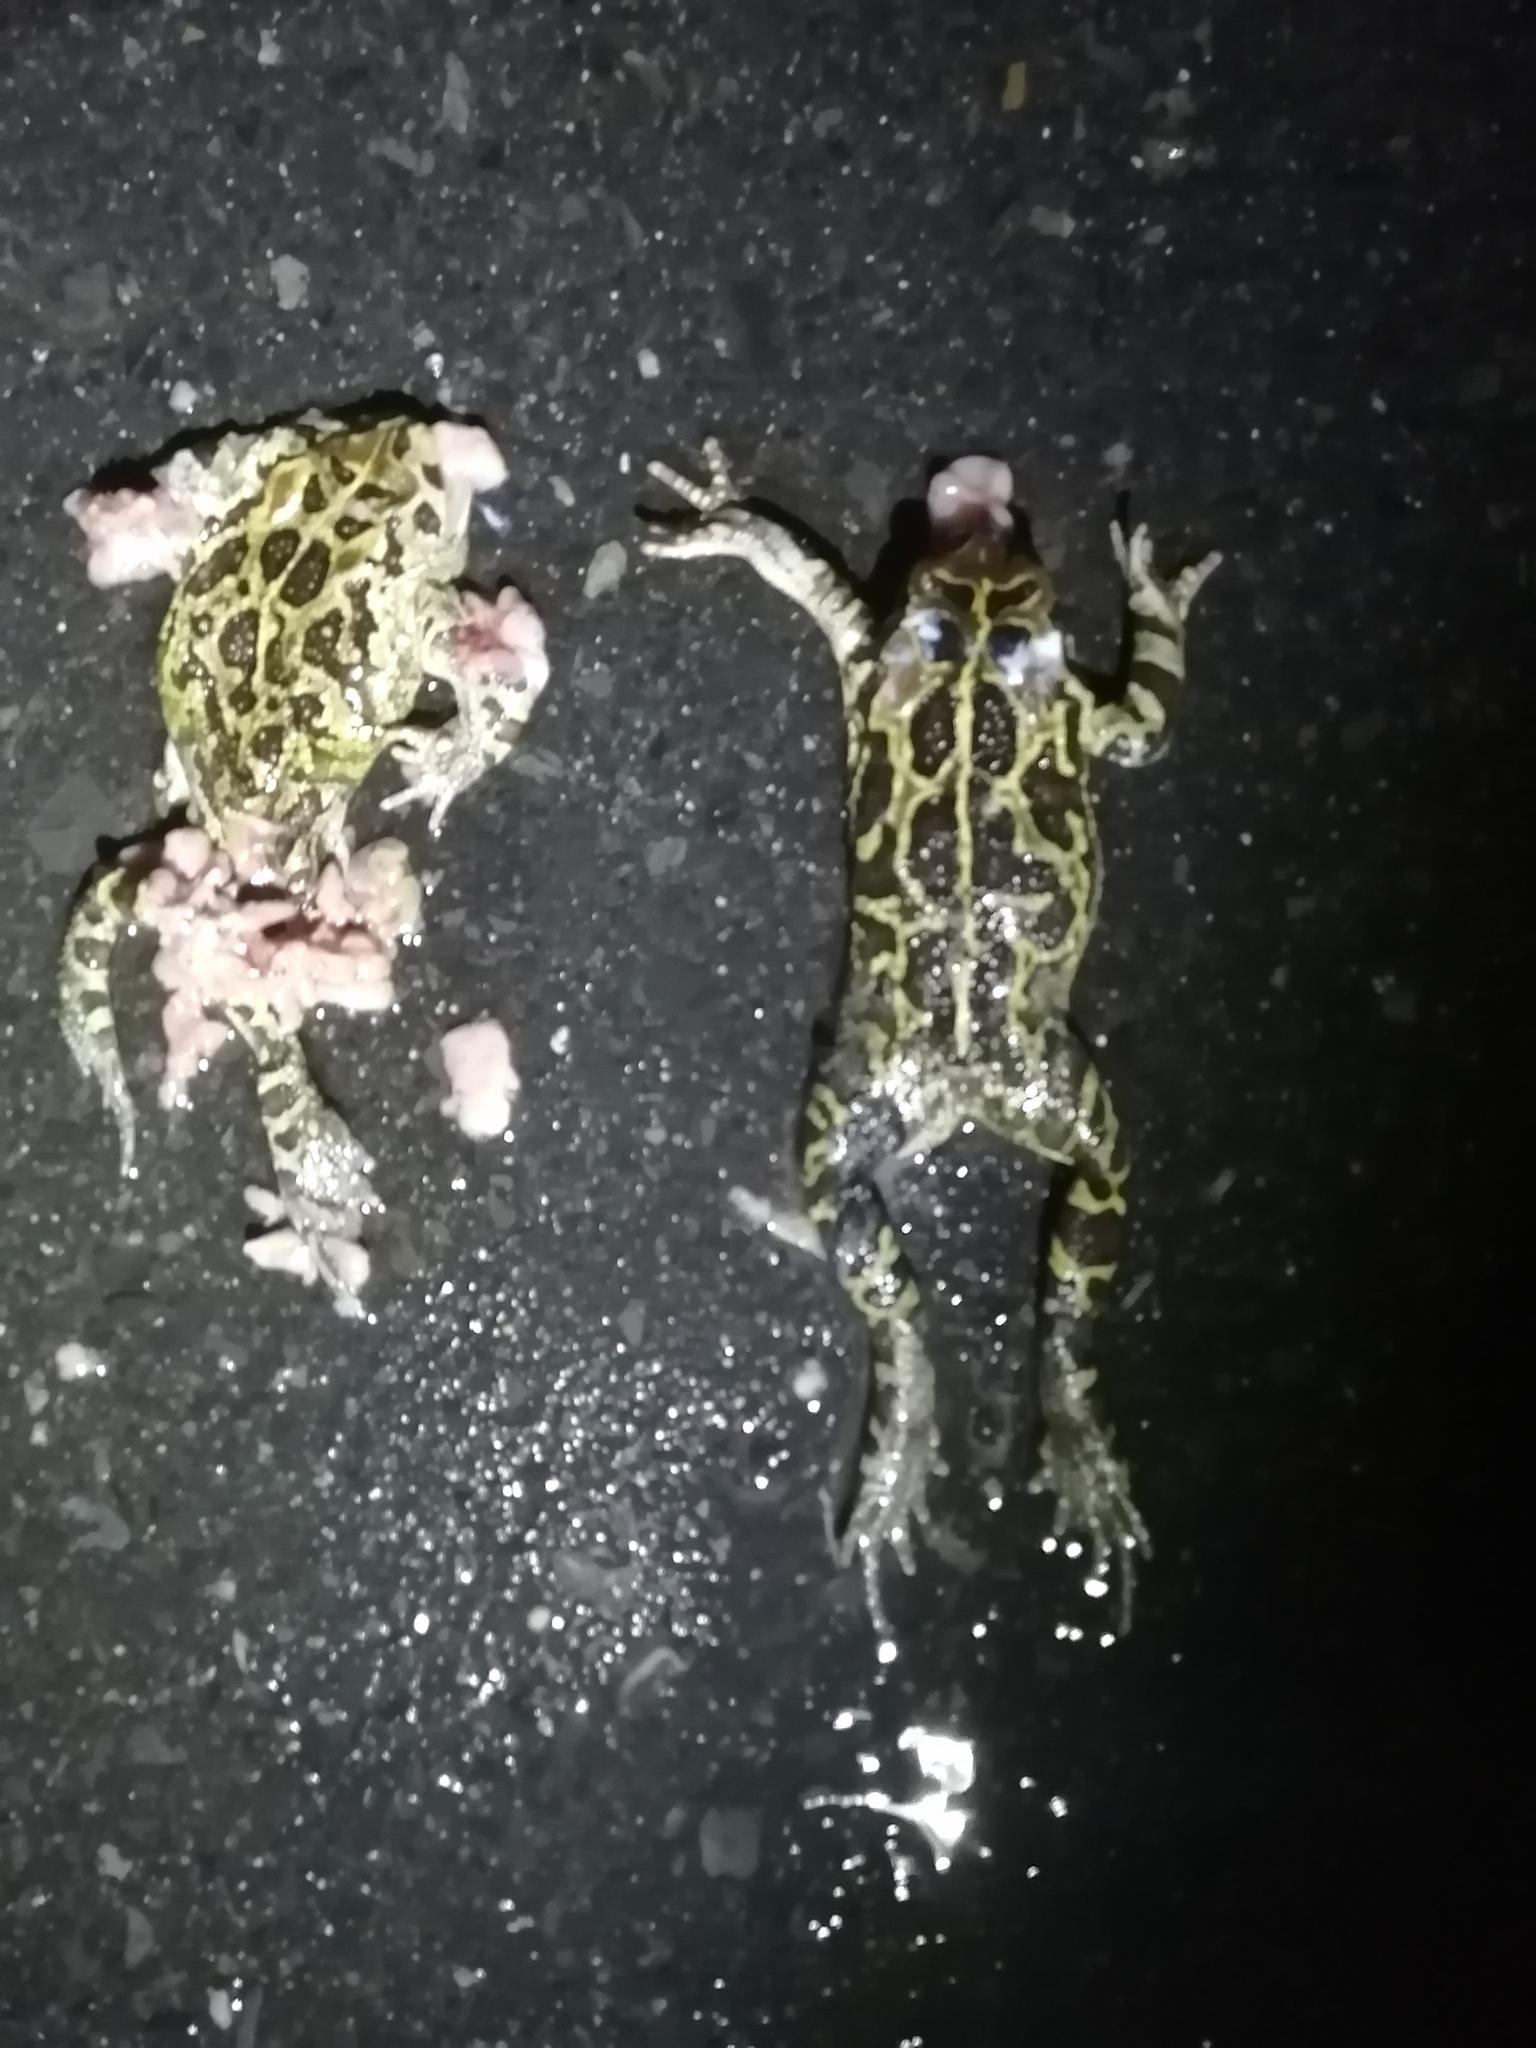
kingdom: Animalia
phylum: Chordata
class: Amphibia
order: Anura
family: Bufonidae
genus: Sclerophrys
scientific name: Sclerophrys pantherina
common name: Panther toad
